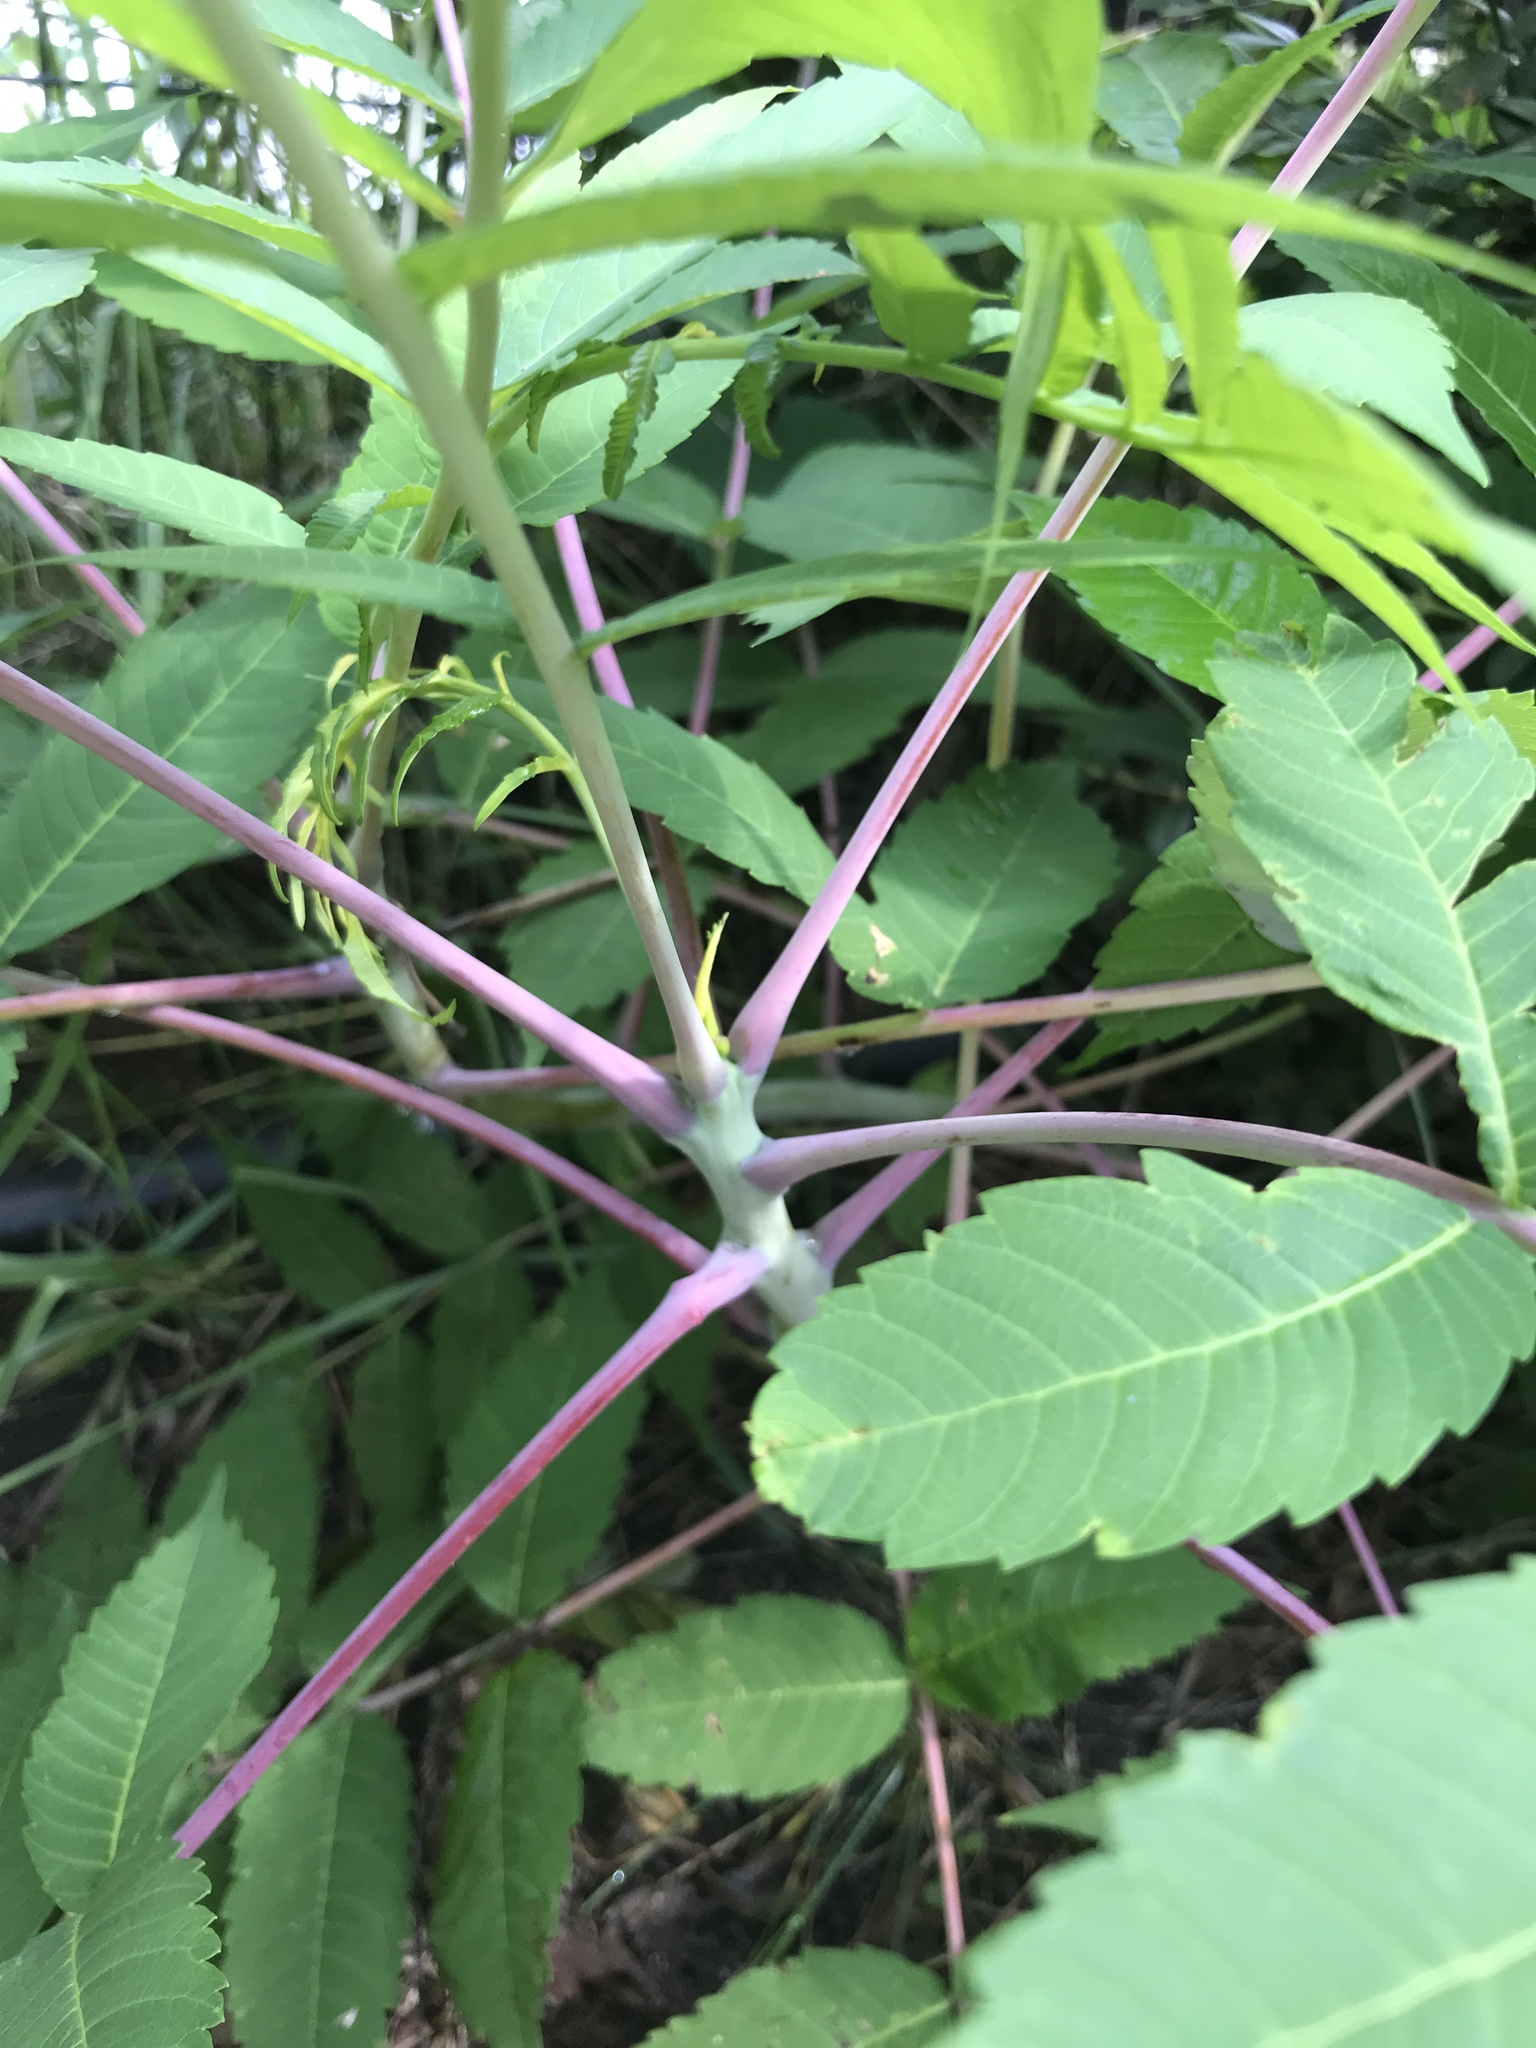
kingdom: Plantae
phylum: Tracheophyta
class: Magnoliopsida
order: Sapindales
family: Anacardiaceae
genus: Rhus
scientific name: Rhus glabra
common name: Scarlet sumac
